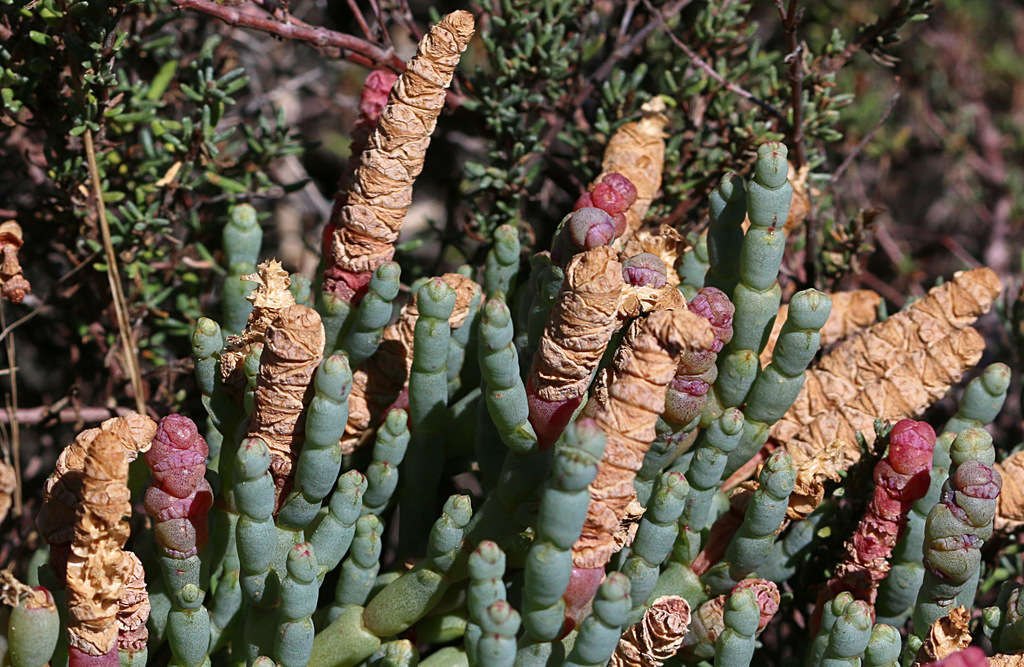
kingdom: Plantae
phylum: Tracheophyta
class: Magnoliopsida
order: Caryophyllales
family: Amaranthaceae
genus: Salicornia
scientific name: Salicornia blackiana
